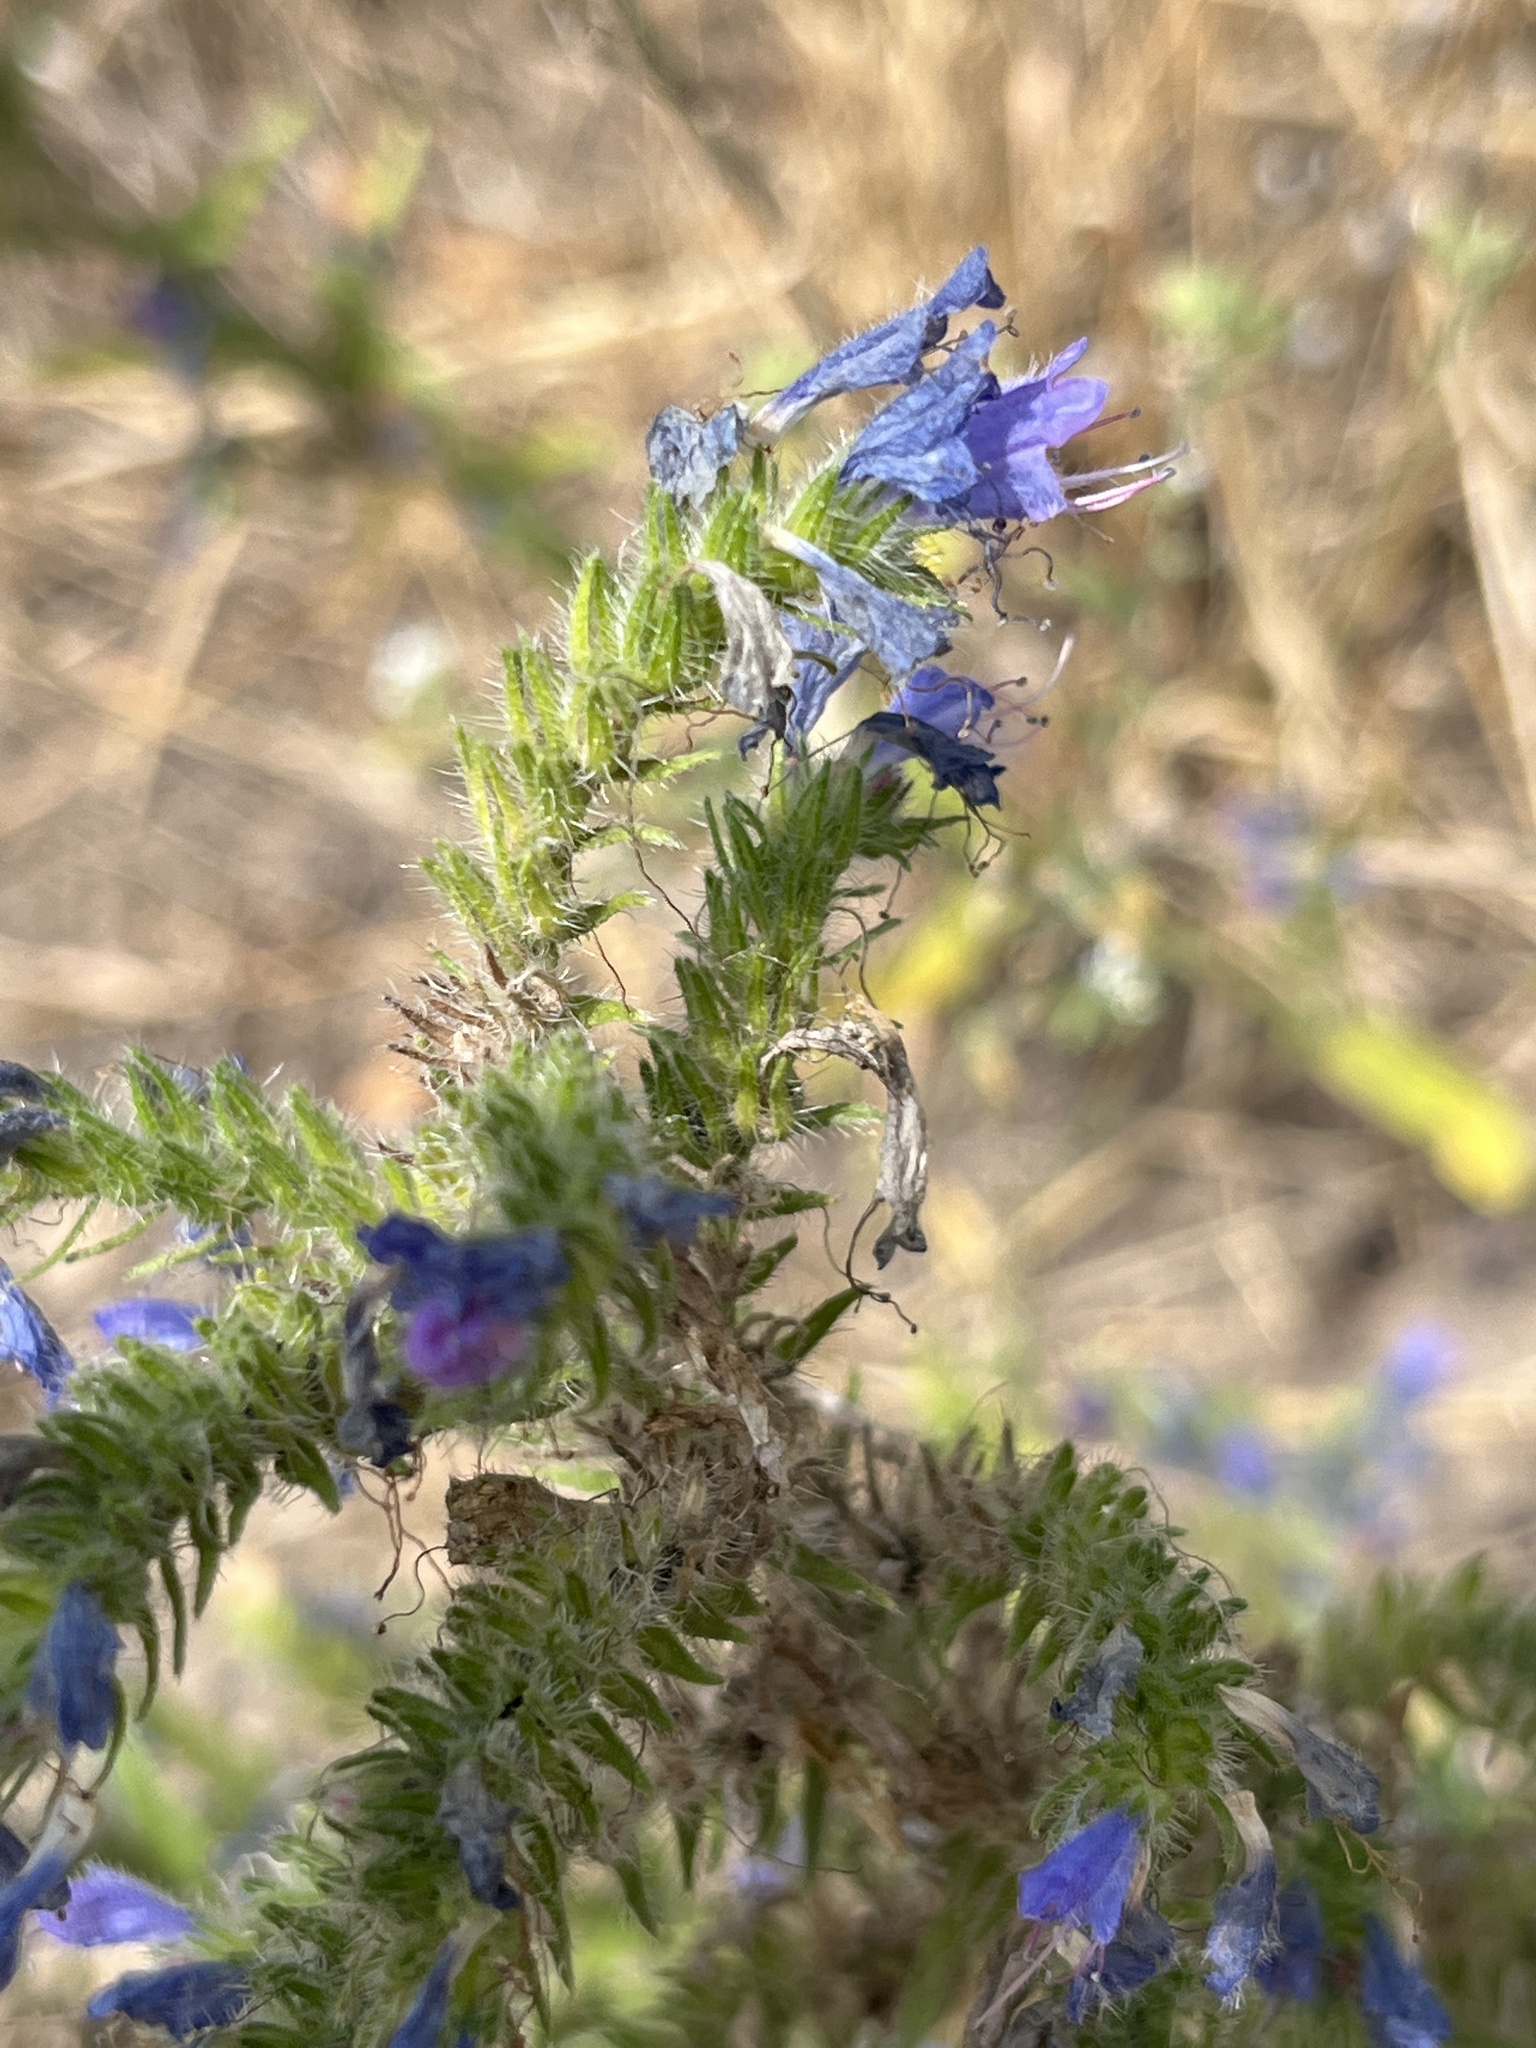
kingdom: Plantae
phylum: Tracheophyta
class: Magnoliopsida
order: Boraginales
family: Boraginaceae
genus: Echium
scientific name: Echium vulgare
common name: Common viper's bugloss
